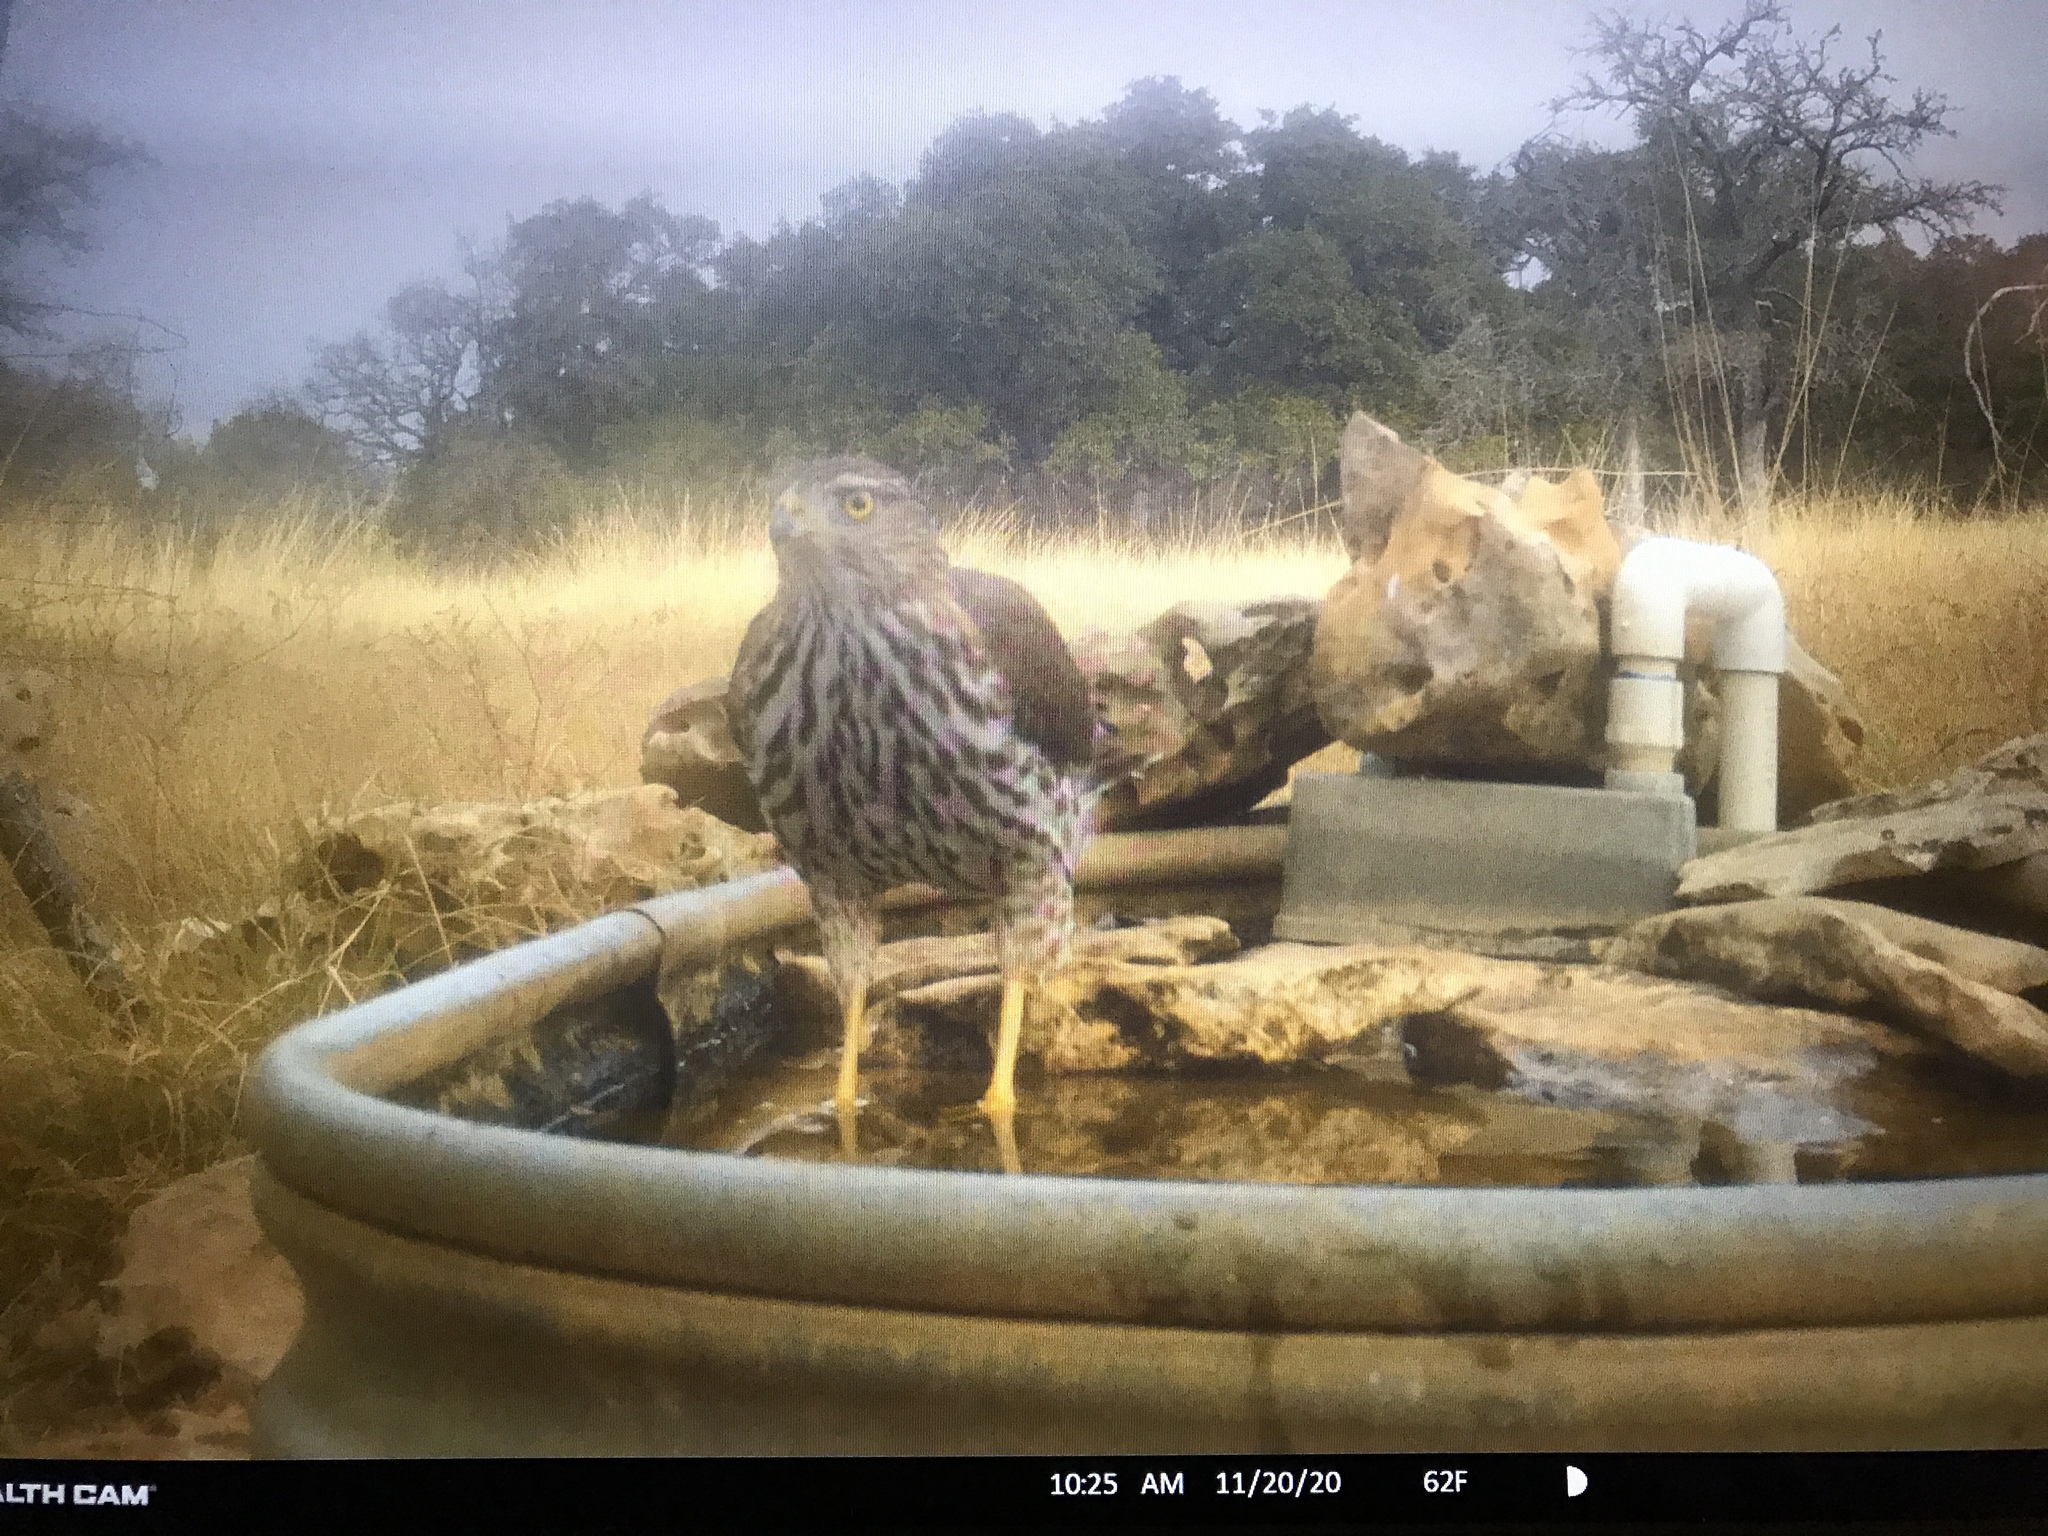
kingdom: Animalia
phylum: Chordata
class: Aves
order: Accipitriformes
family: Accipitridae
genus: Accipiter
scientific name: Accipiter cooperii
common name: Cooper's hawk
